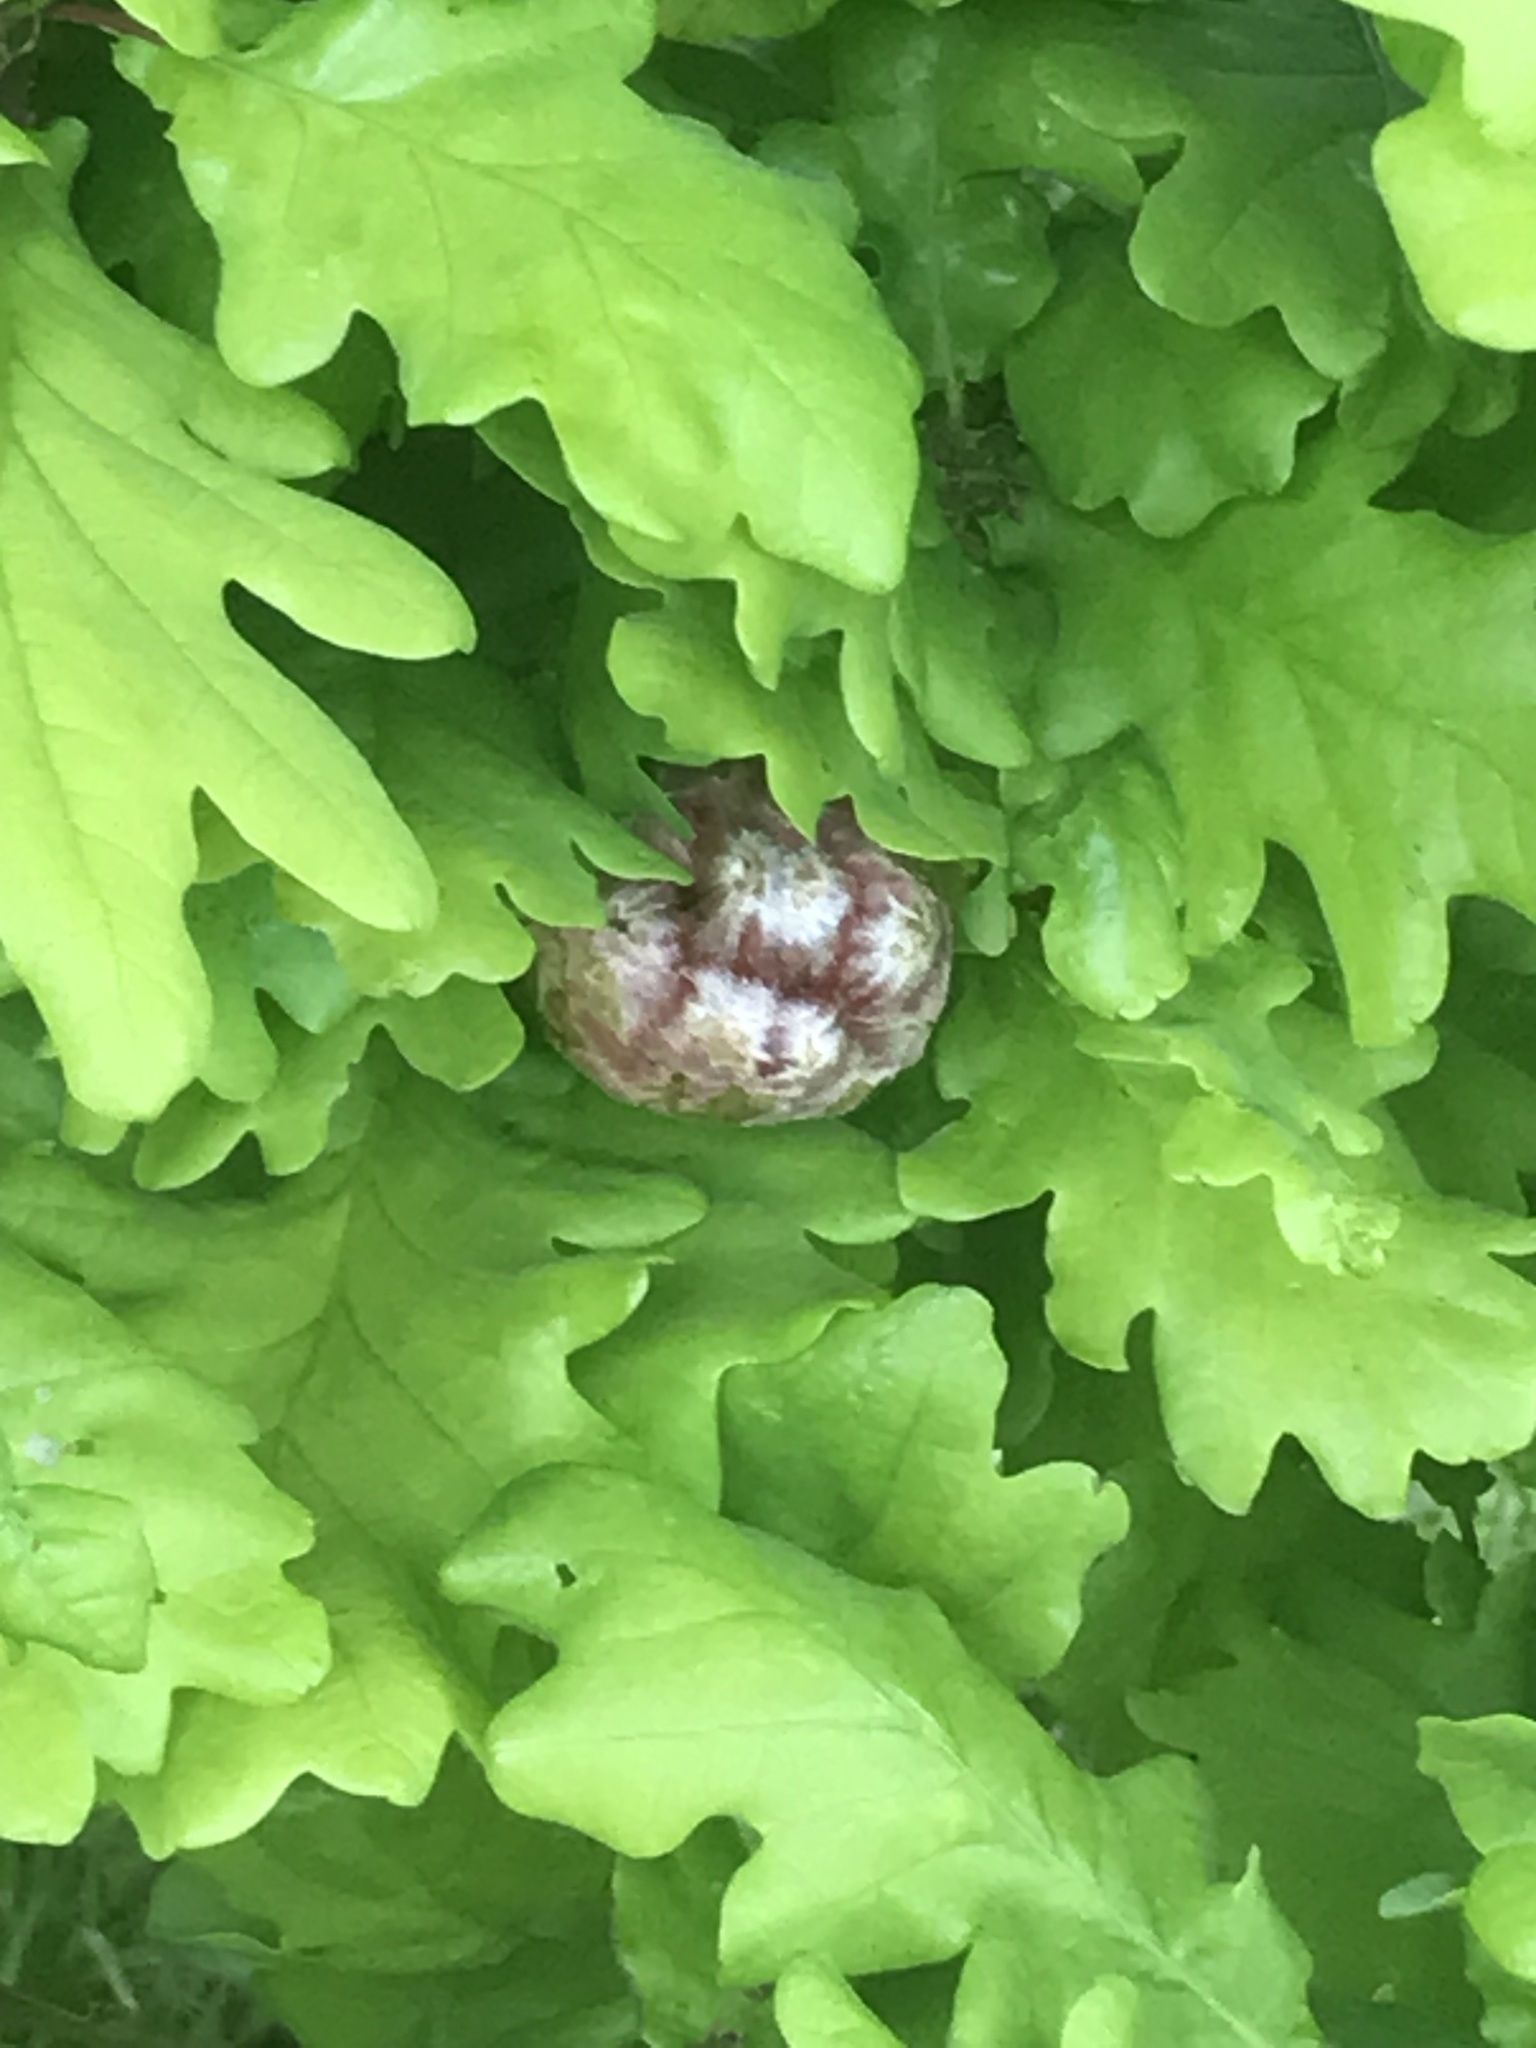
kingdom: Animalia
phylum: Arthropoda
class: Insecta
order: Hymenoptera
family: Cynipidae
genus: Biorhiza
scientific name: Biorhiza pallida
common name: Oak apple
